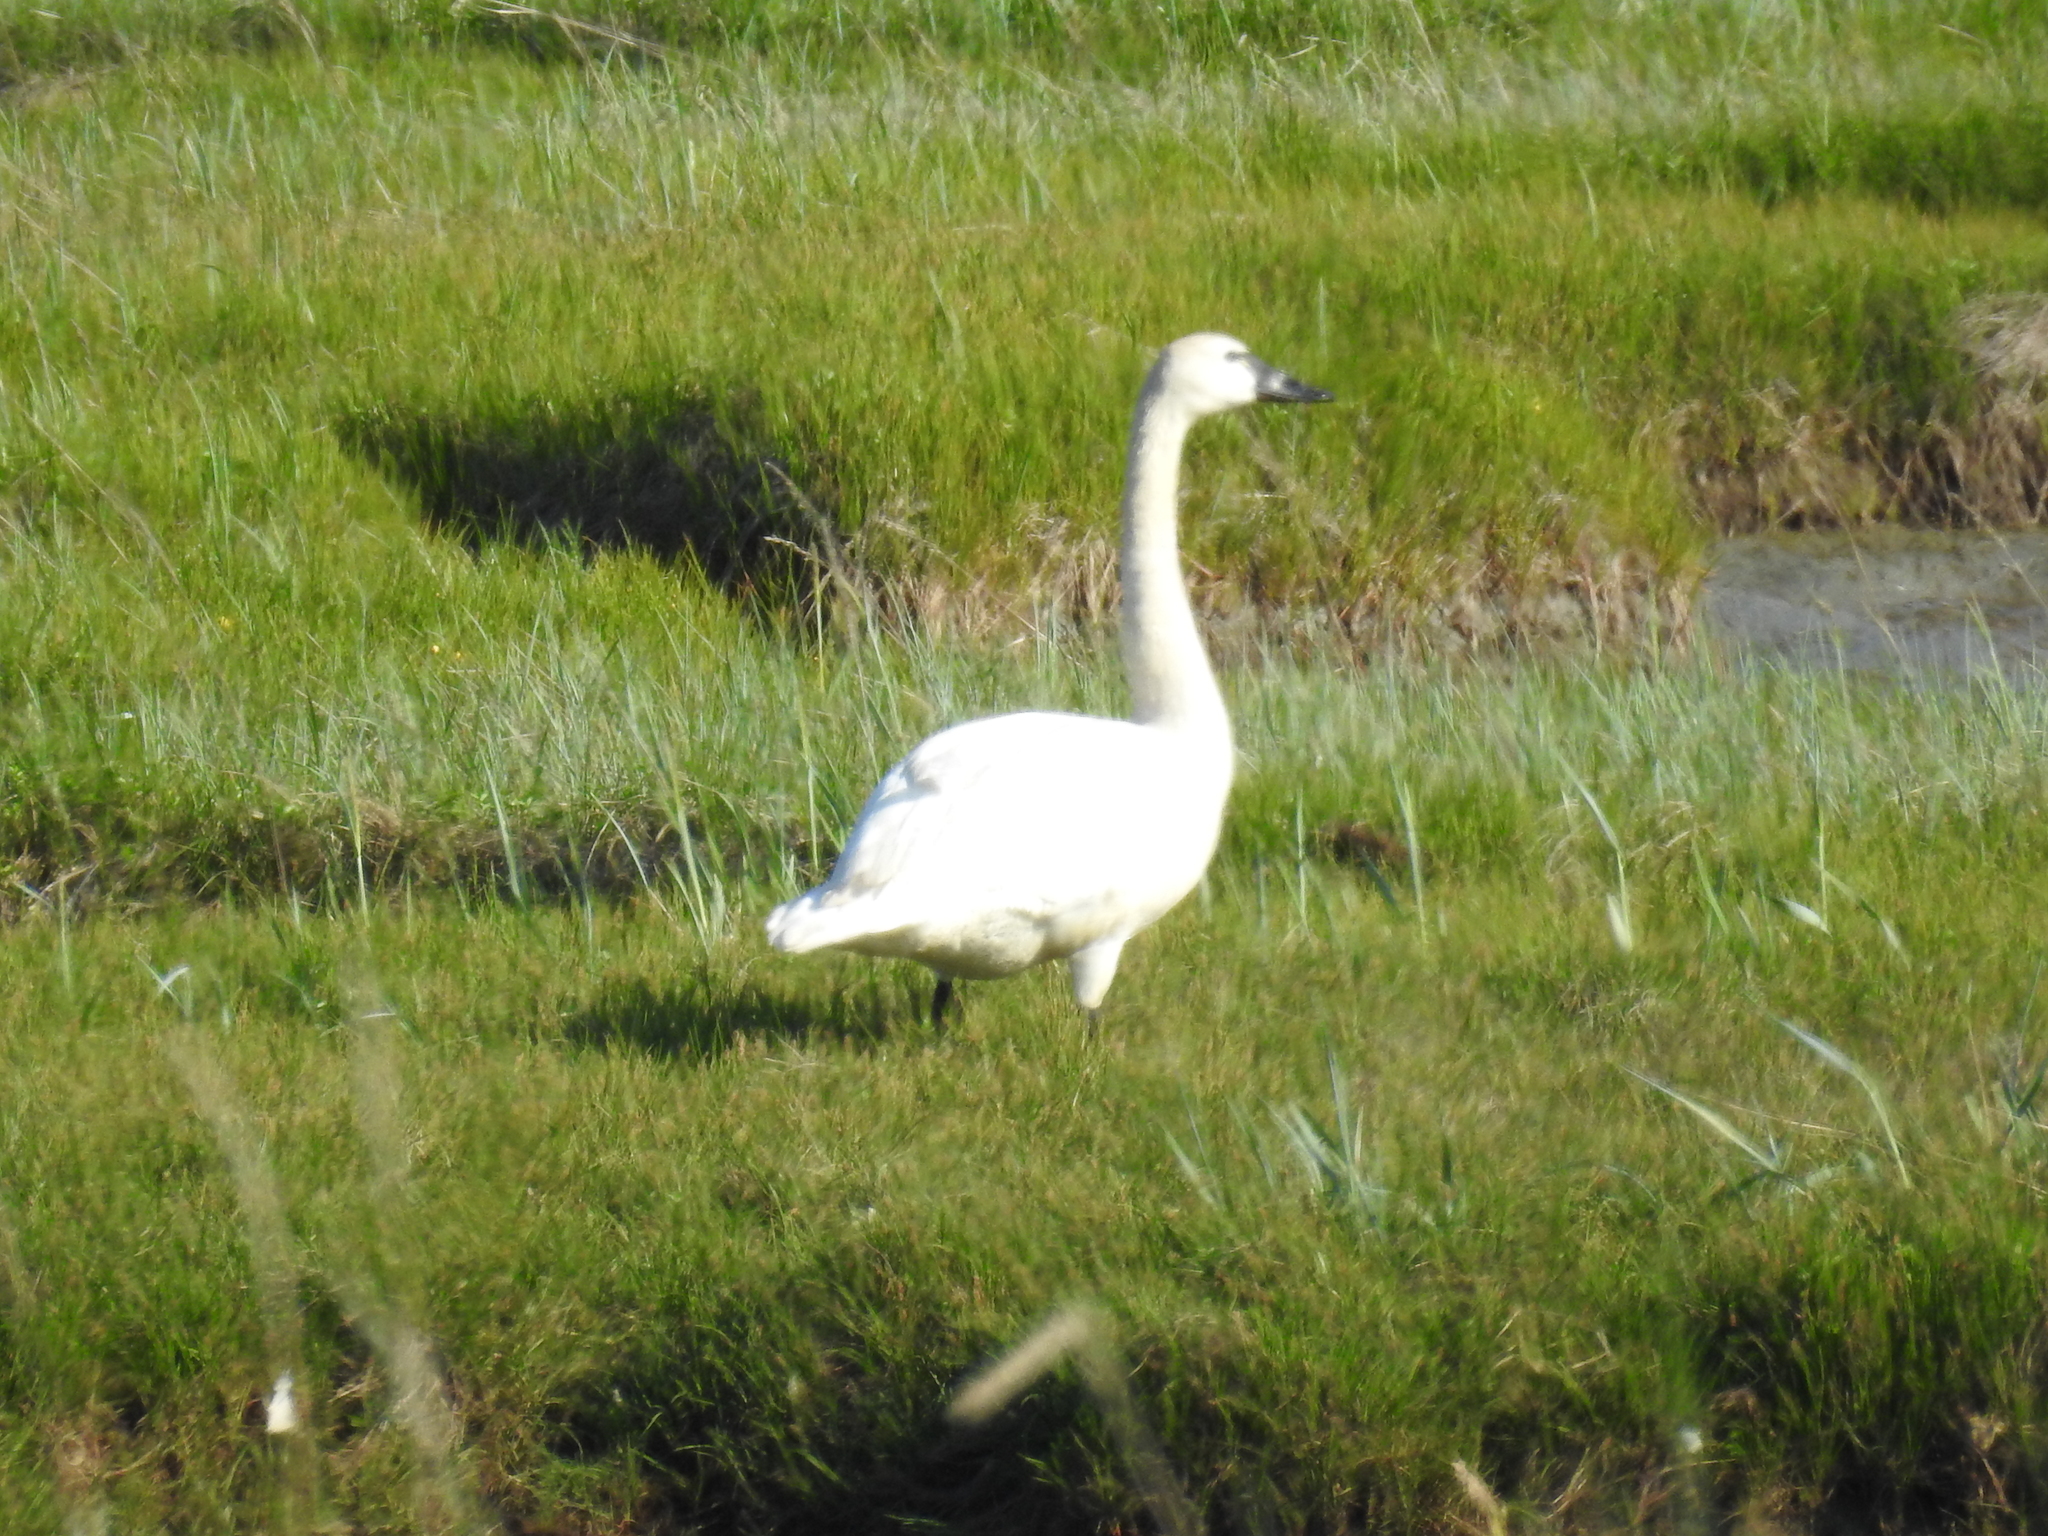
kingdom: Animalia
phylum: Chordata
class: Aves
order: Anseriformes
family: Anatidae
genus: Cygnus
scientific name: Cygnus columbianus
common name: Tundra swan
